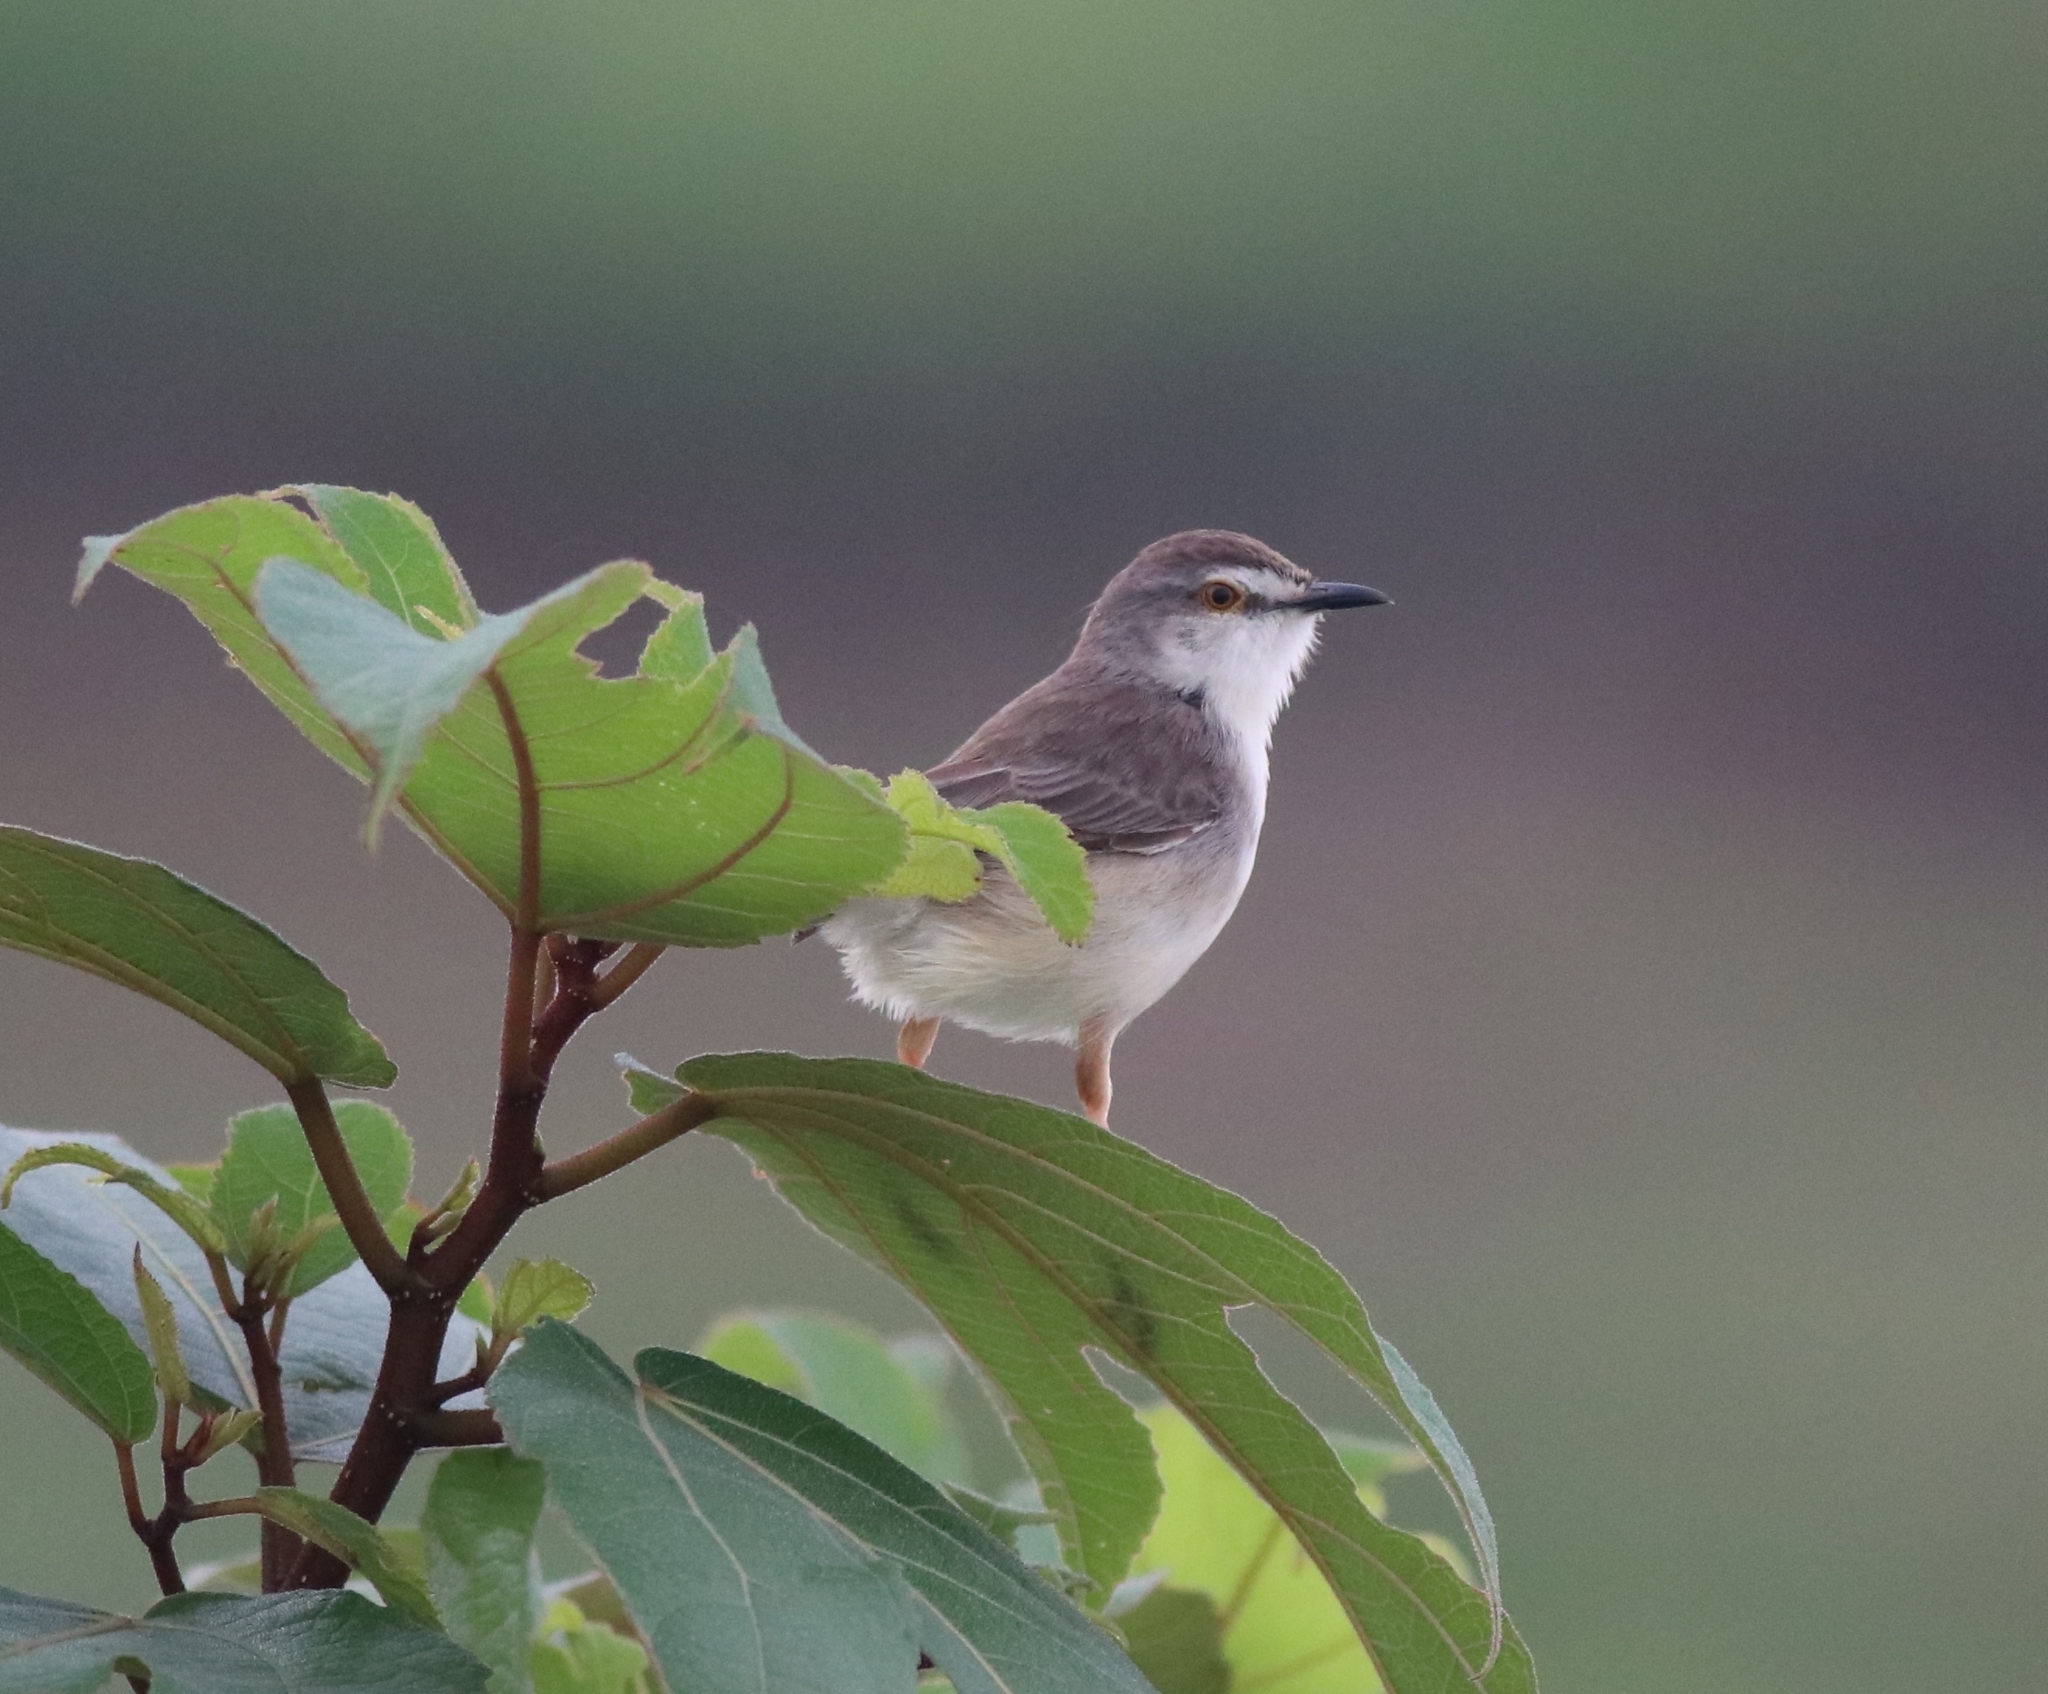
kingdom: Animalia
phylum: Chordata
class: Aves
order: Passeriformes
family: Cisticolidae
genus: Prinia
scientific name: Prinia inornata
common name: Plain prinia
